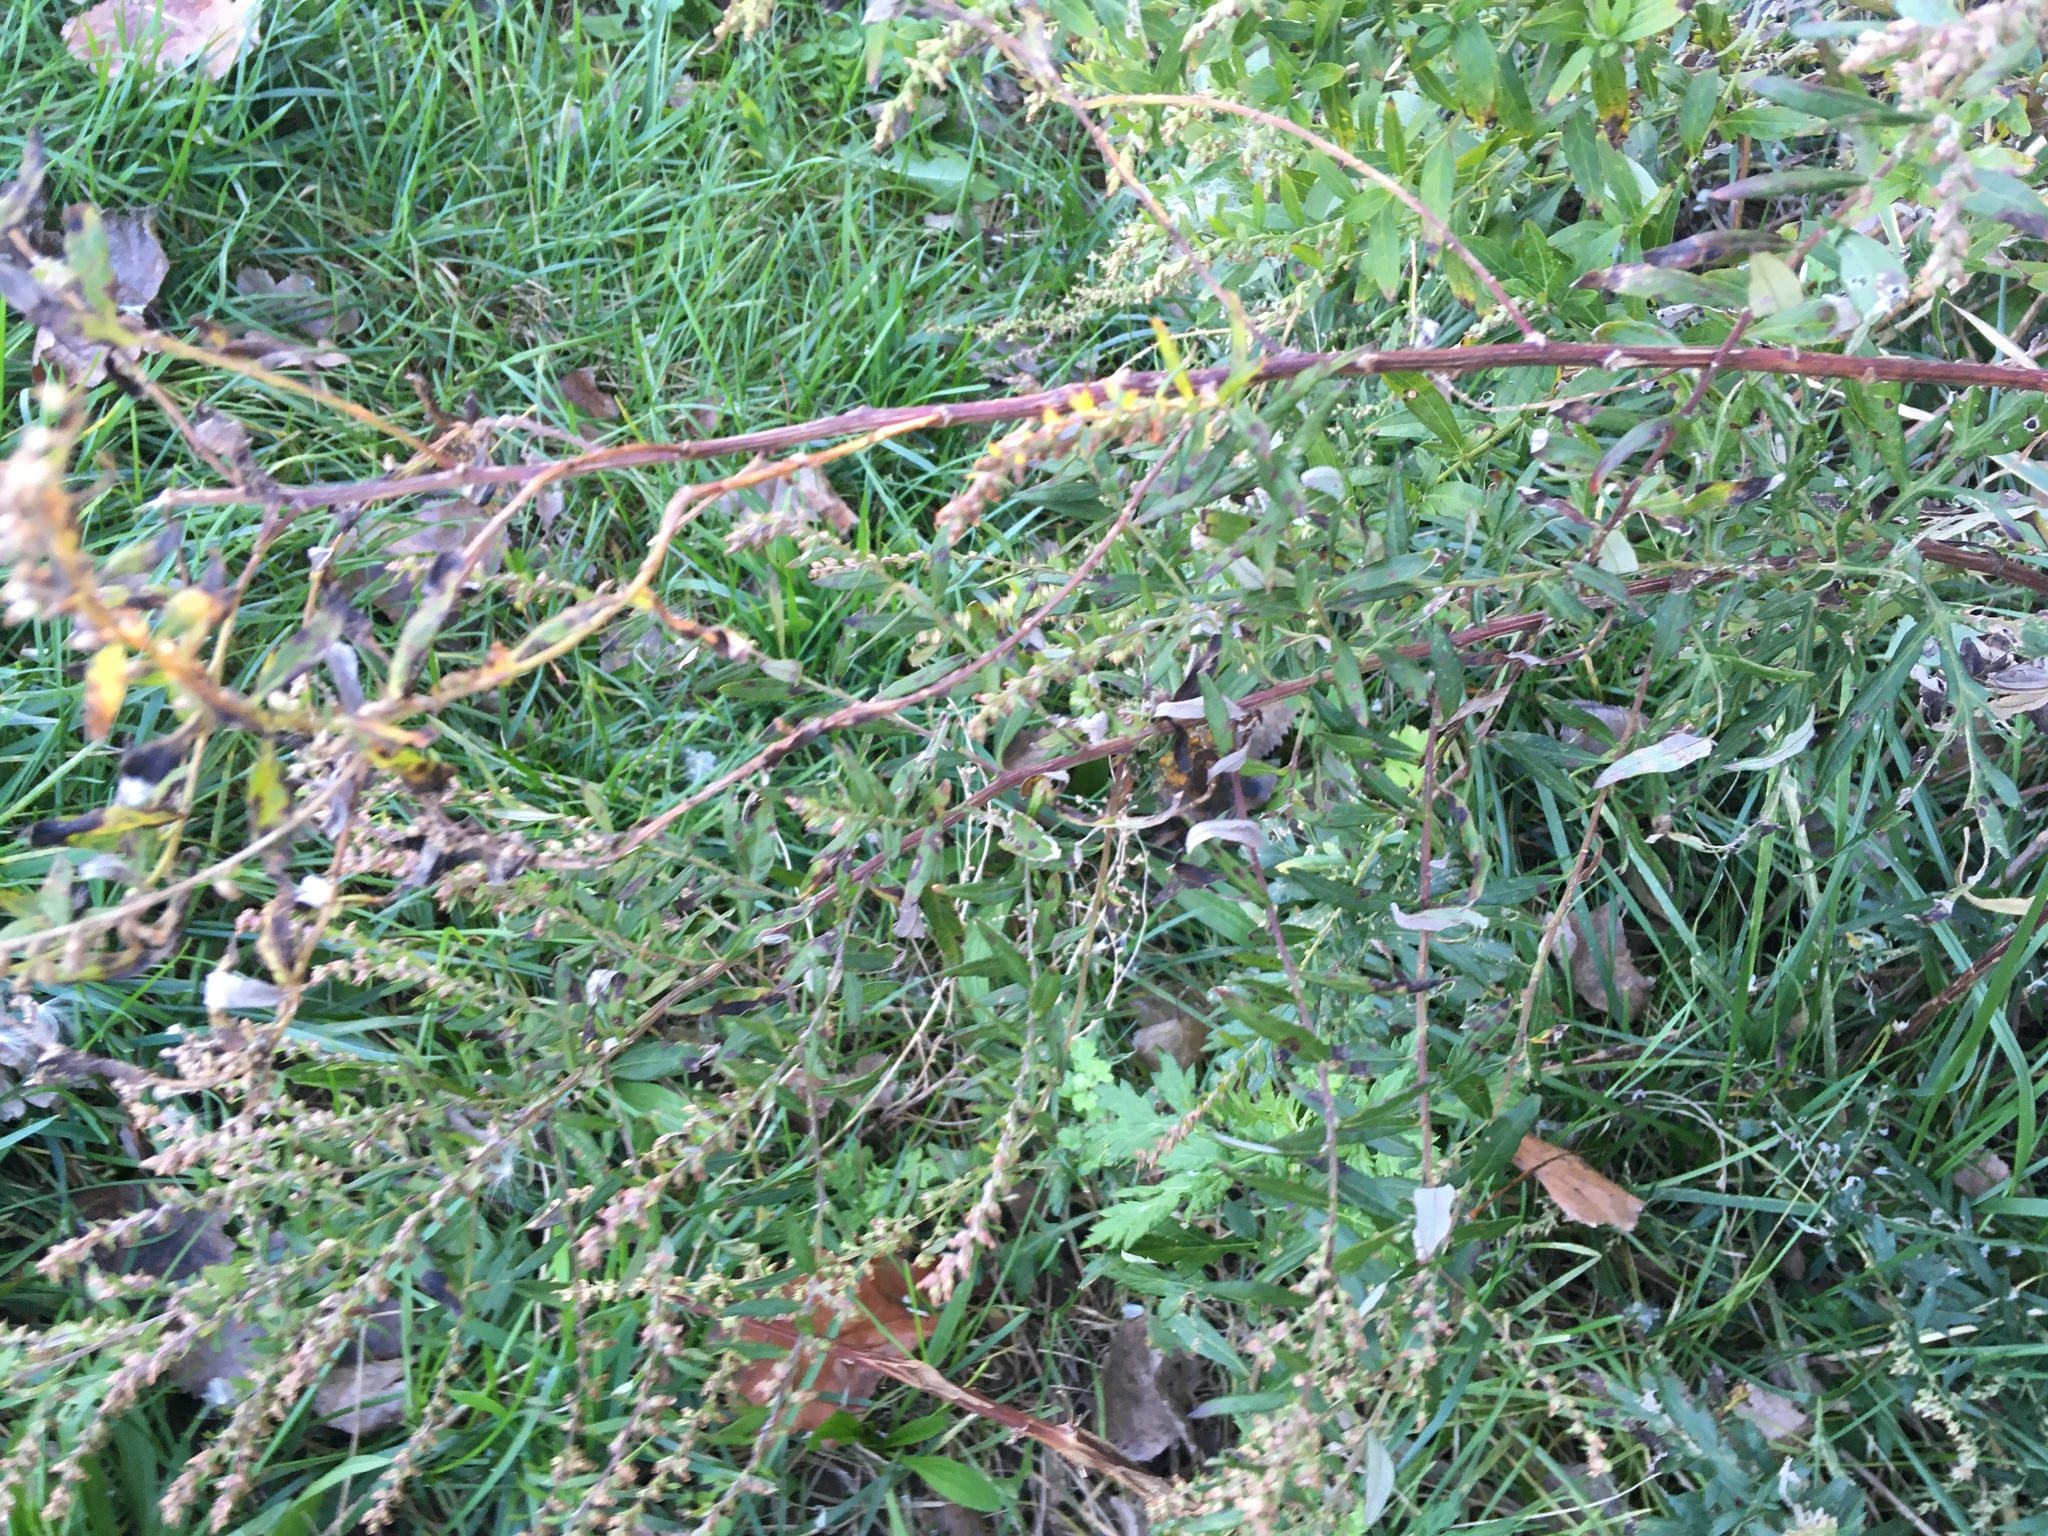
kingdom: Plantae
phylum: Tracheophyta
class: Magnoliopsida
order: Asterales
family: Asteraceae
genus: Artemisia
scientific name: Artemisia vulgaris
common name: Mugwort
